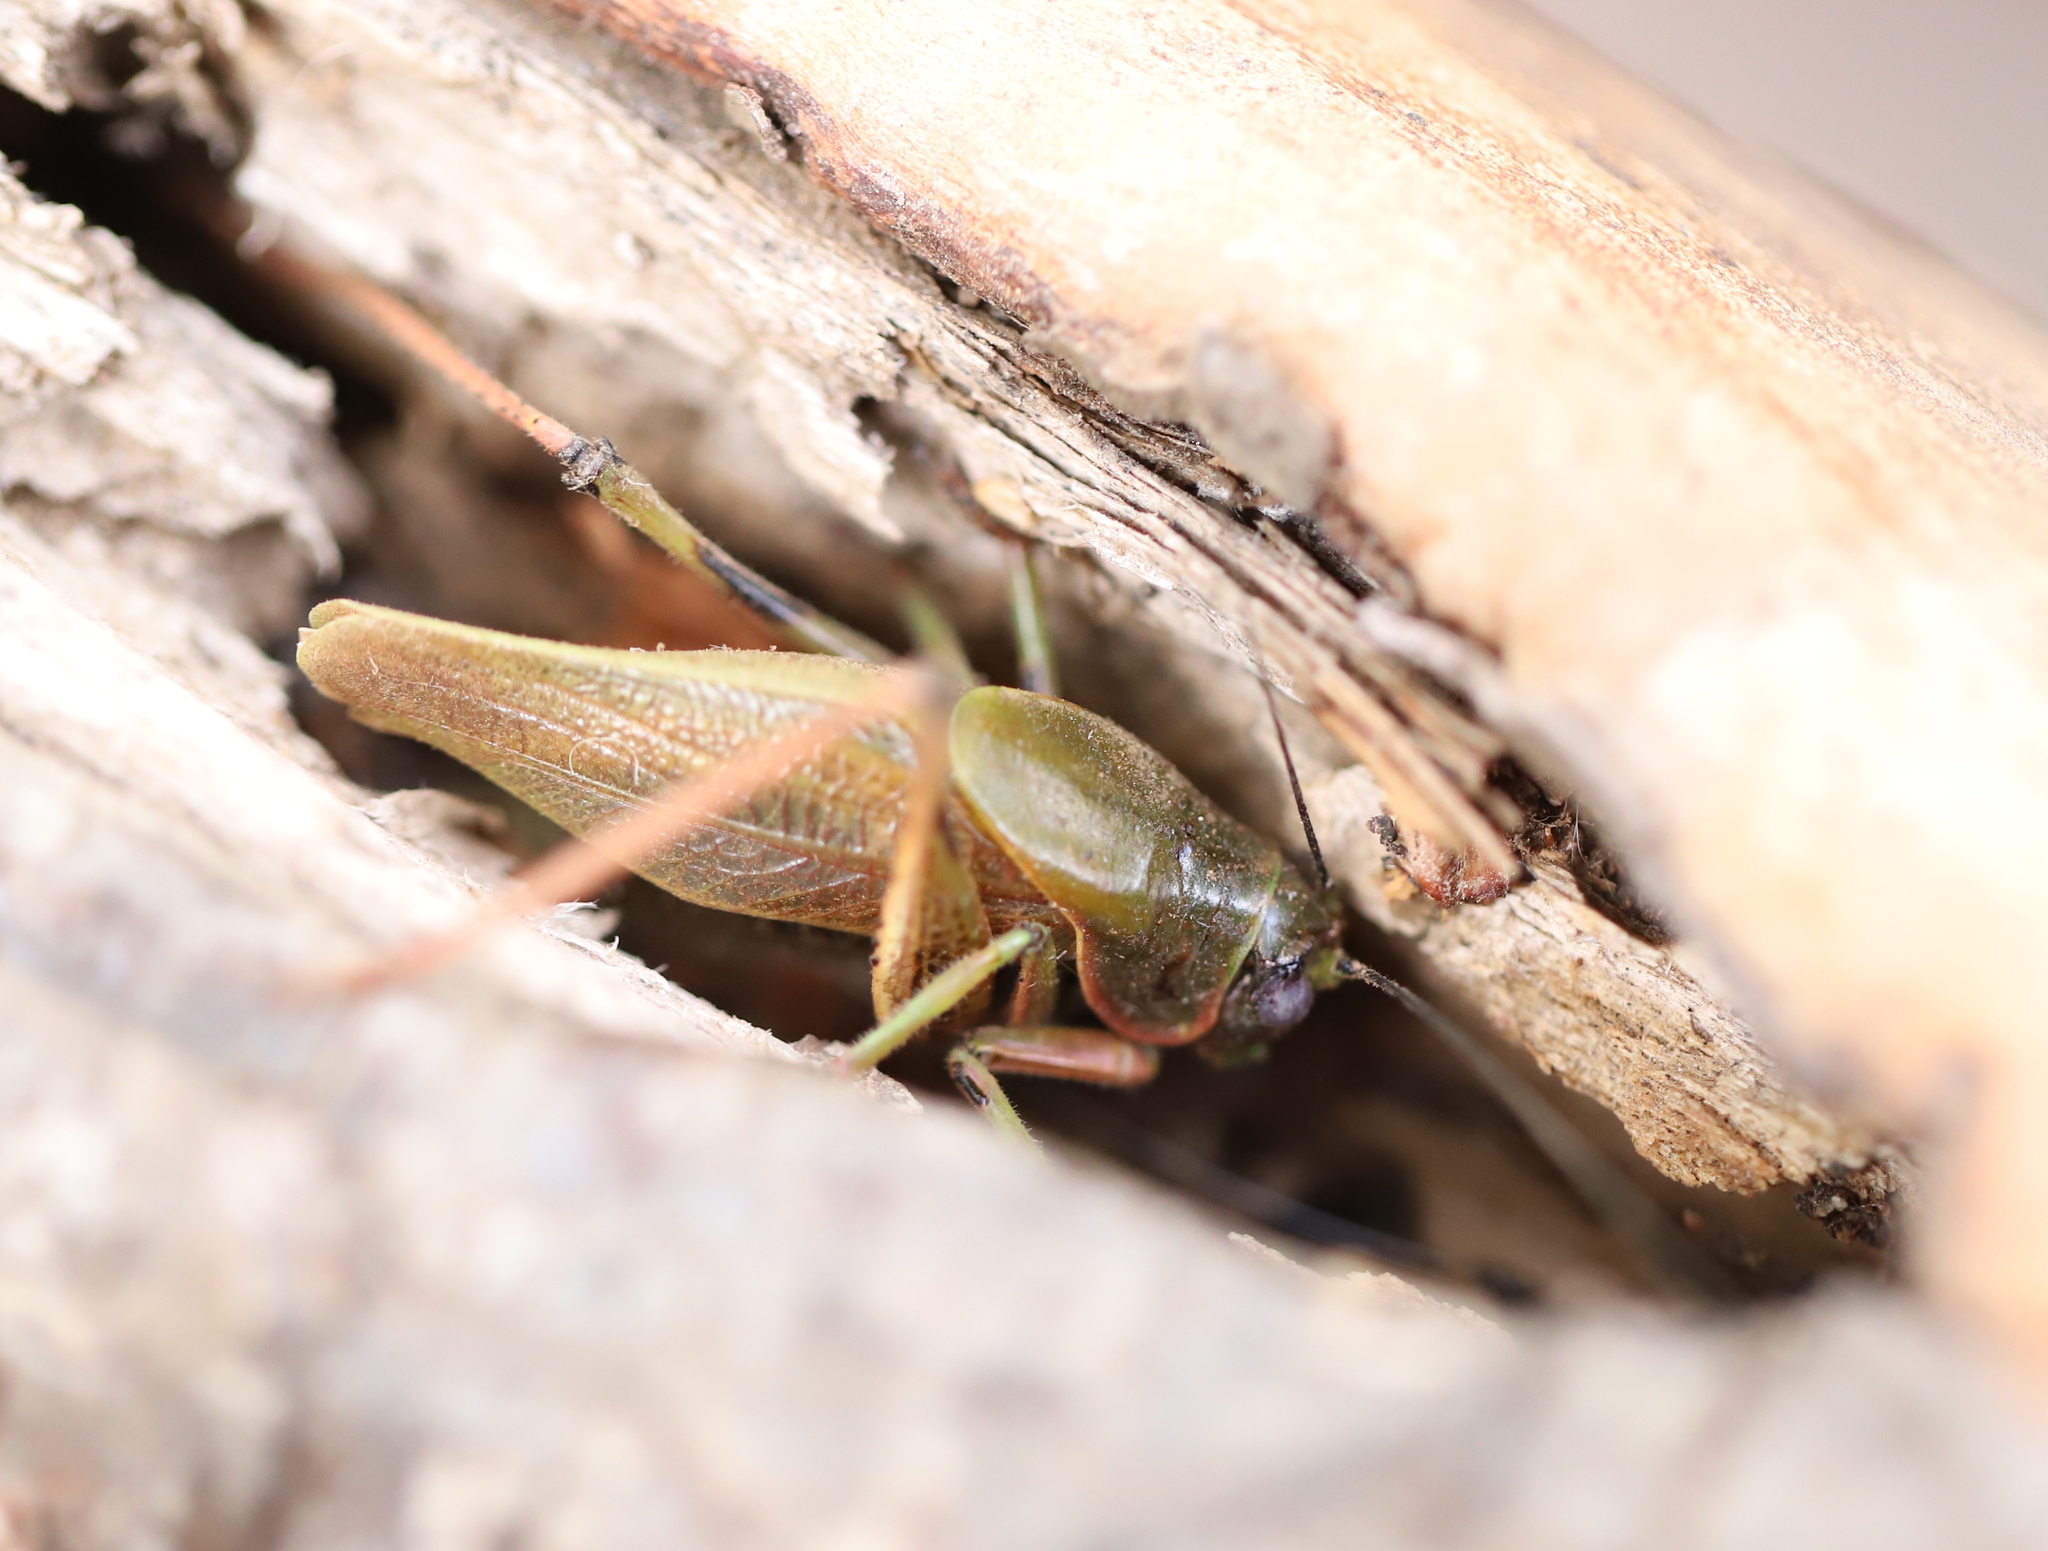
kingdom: Animalia
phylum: Arthropoda
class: Insecta
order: Orthoptera
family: Tettigoniidae
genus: Coniungoptera
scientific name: Coniungoptera nothofagi
